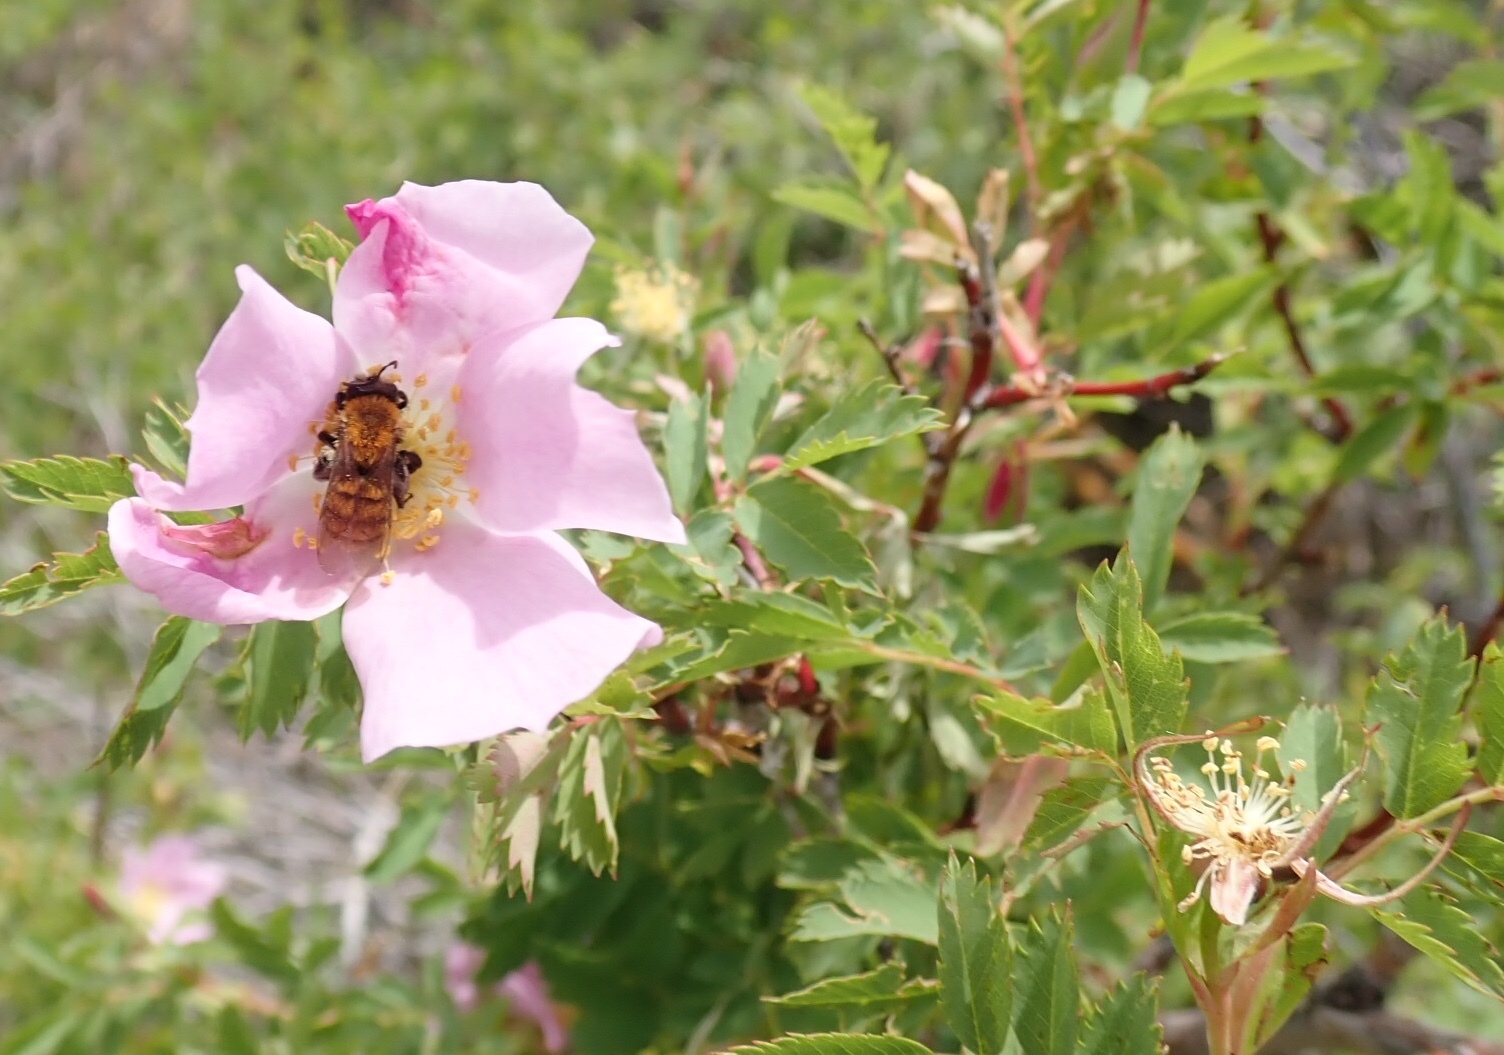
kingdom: Plantae
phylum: Tracheophyta
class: Magnoliopsida
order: Rosales
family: Rosaceae
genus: Rosa
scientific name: Rosa arkansana
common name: Prairie rose
